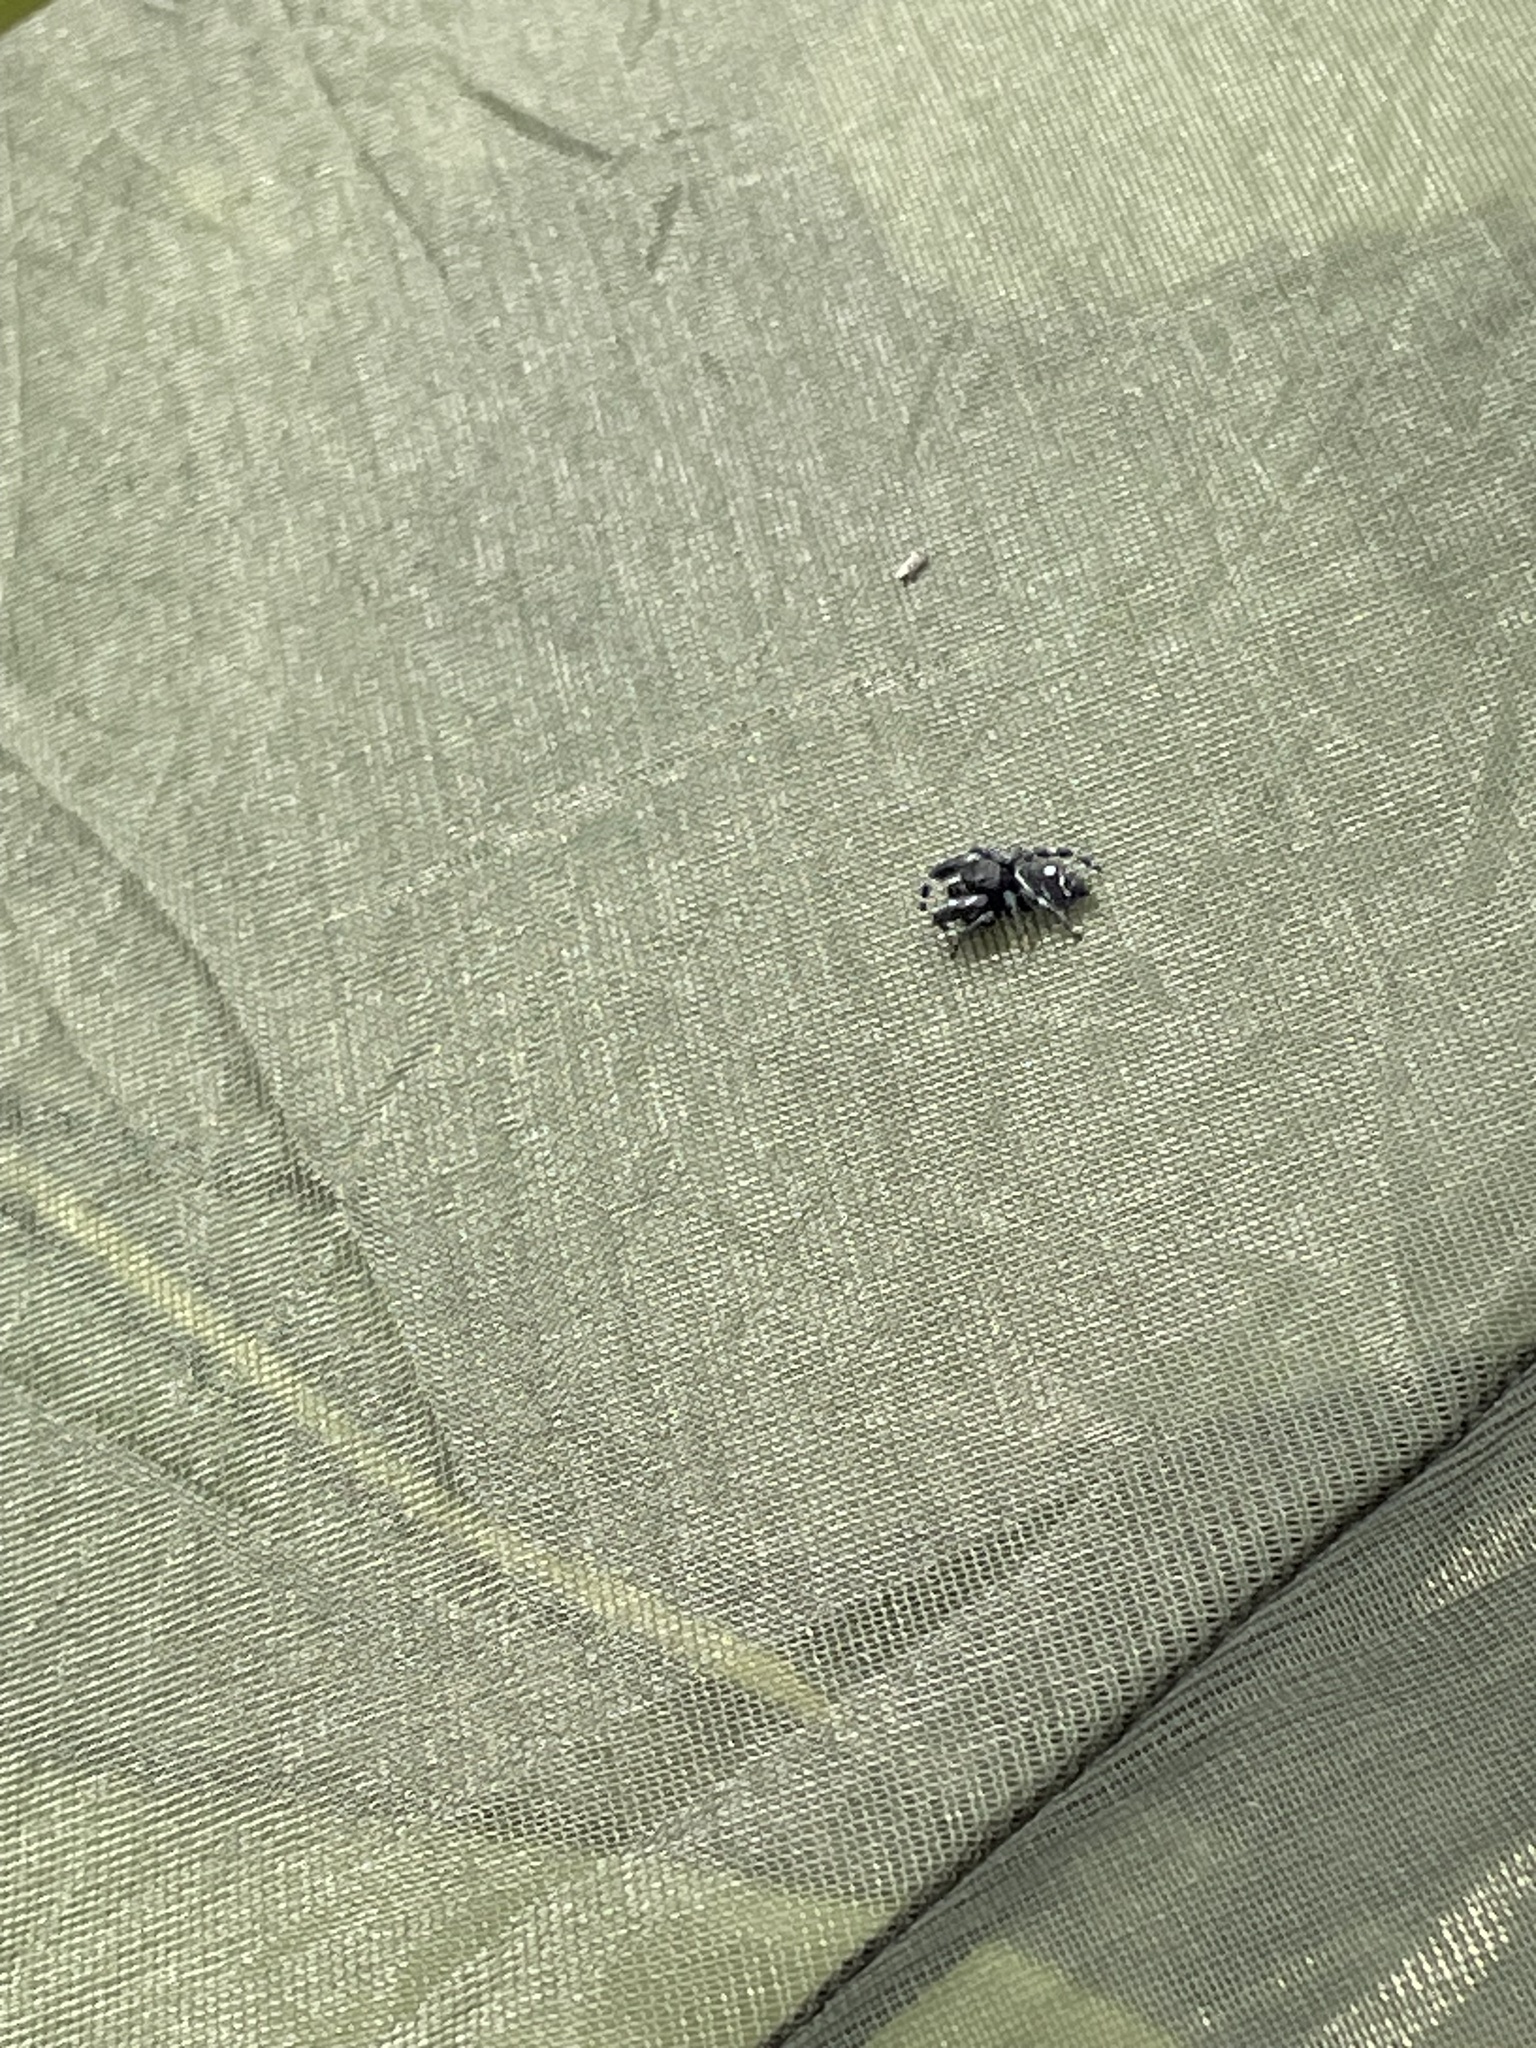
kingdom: Animalia
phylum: Arthropoda
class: Arachnida
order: Araneae
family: Salticidae
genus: Phidippus
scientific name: Phidippus audax
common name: Bold jumper
